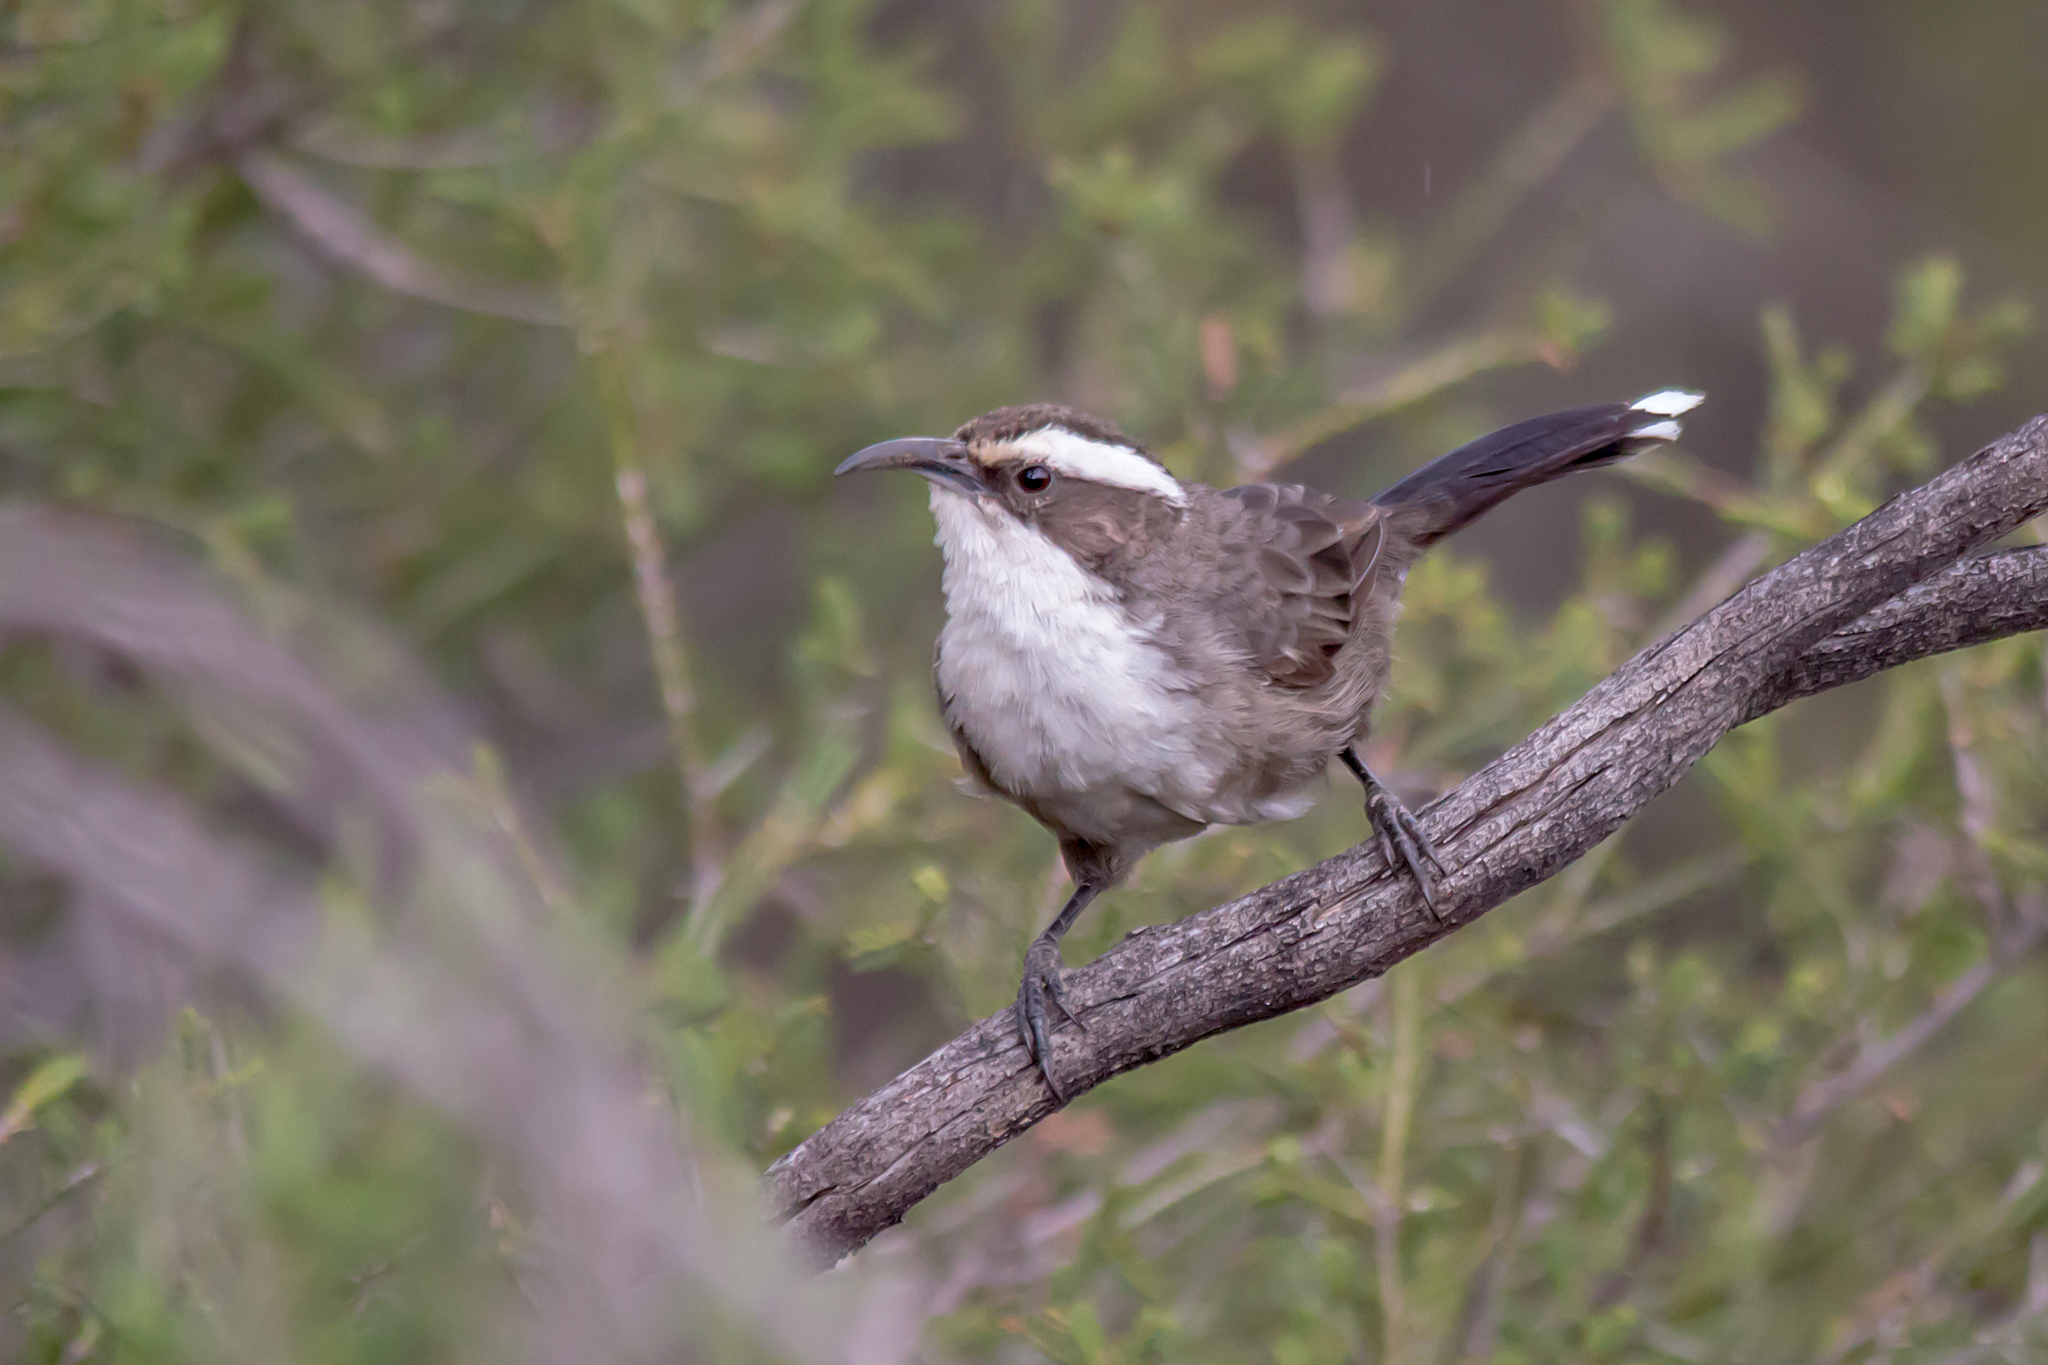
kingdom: Animalia
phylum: Chordata
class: Aves
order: Passeriformes
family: Pomatostomidae
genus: Pomatostomus
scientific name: Pomatostomus superciliosus
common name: White-browed babbler
